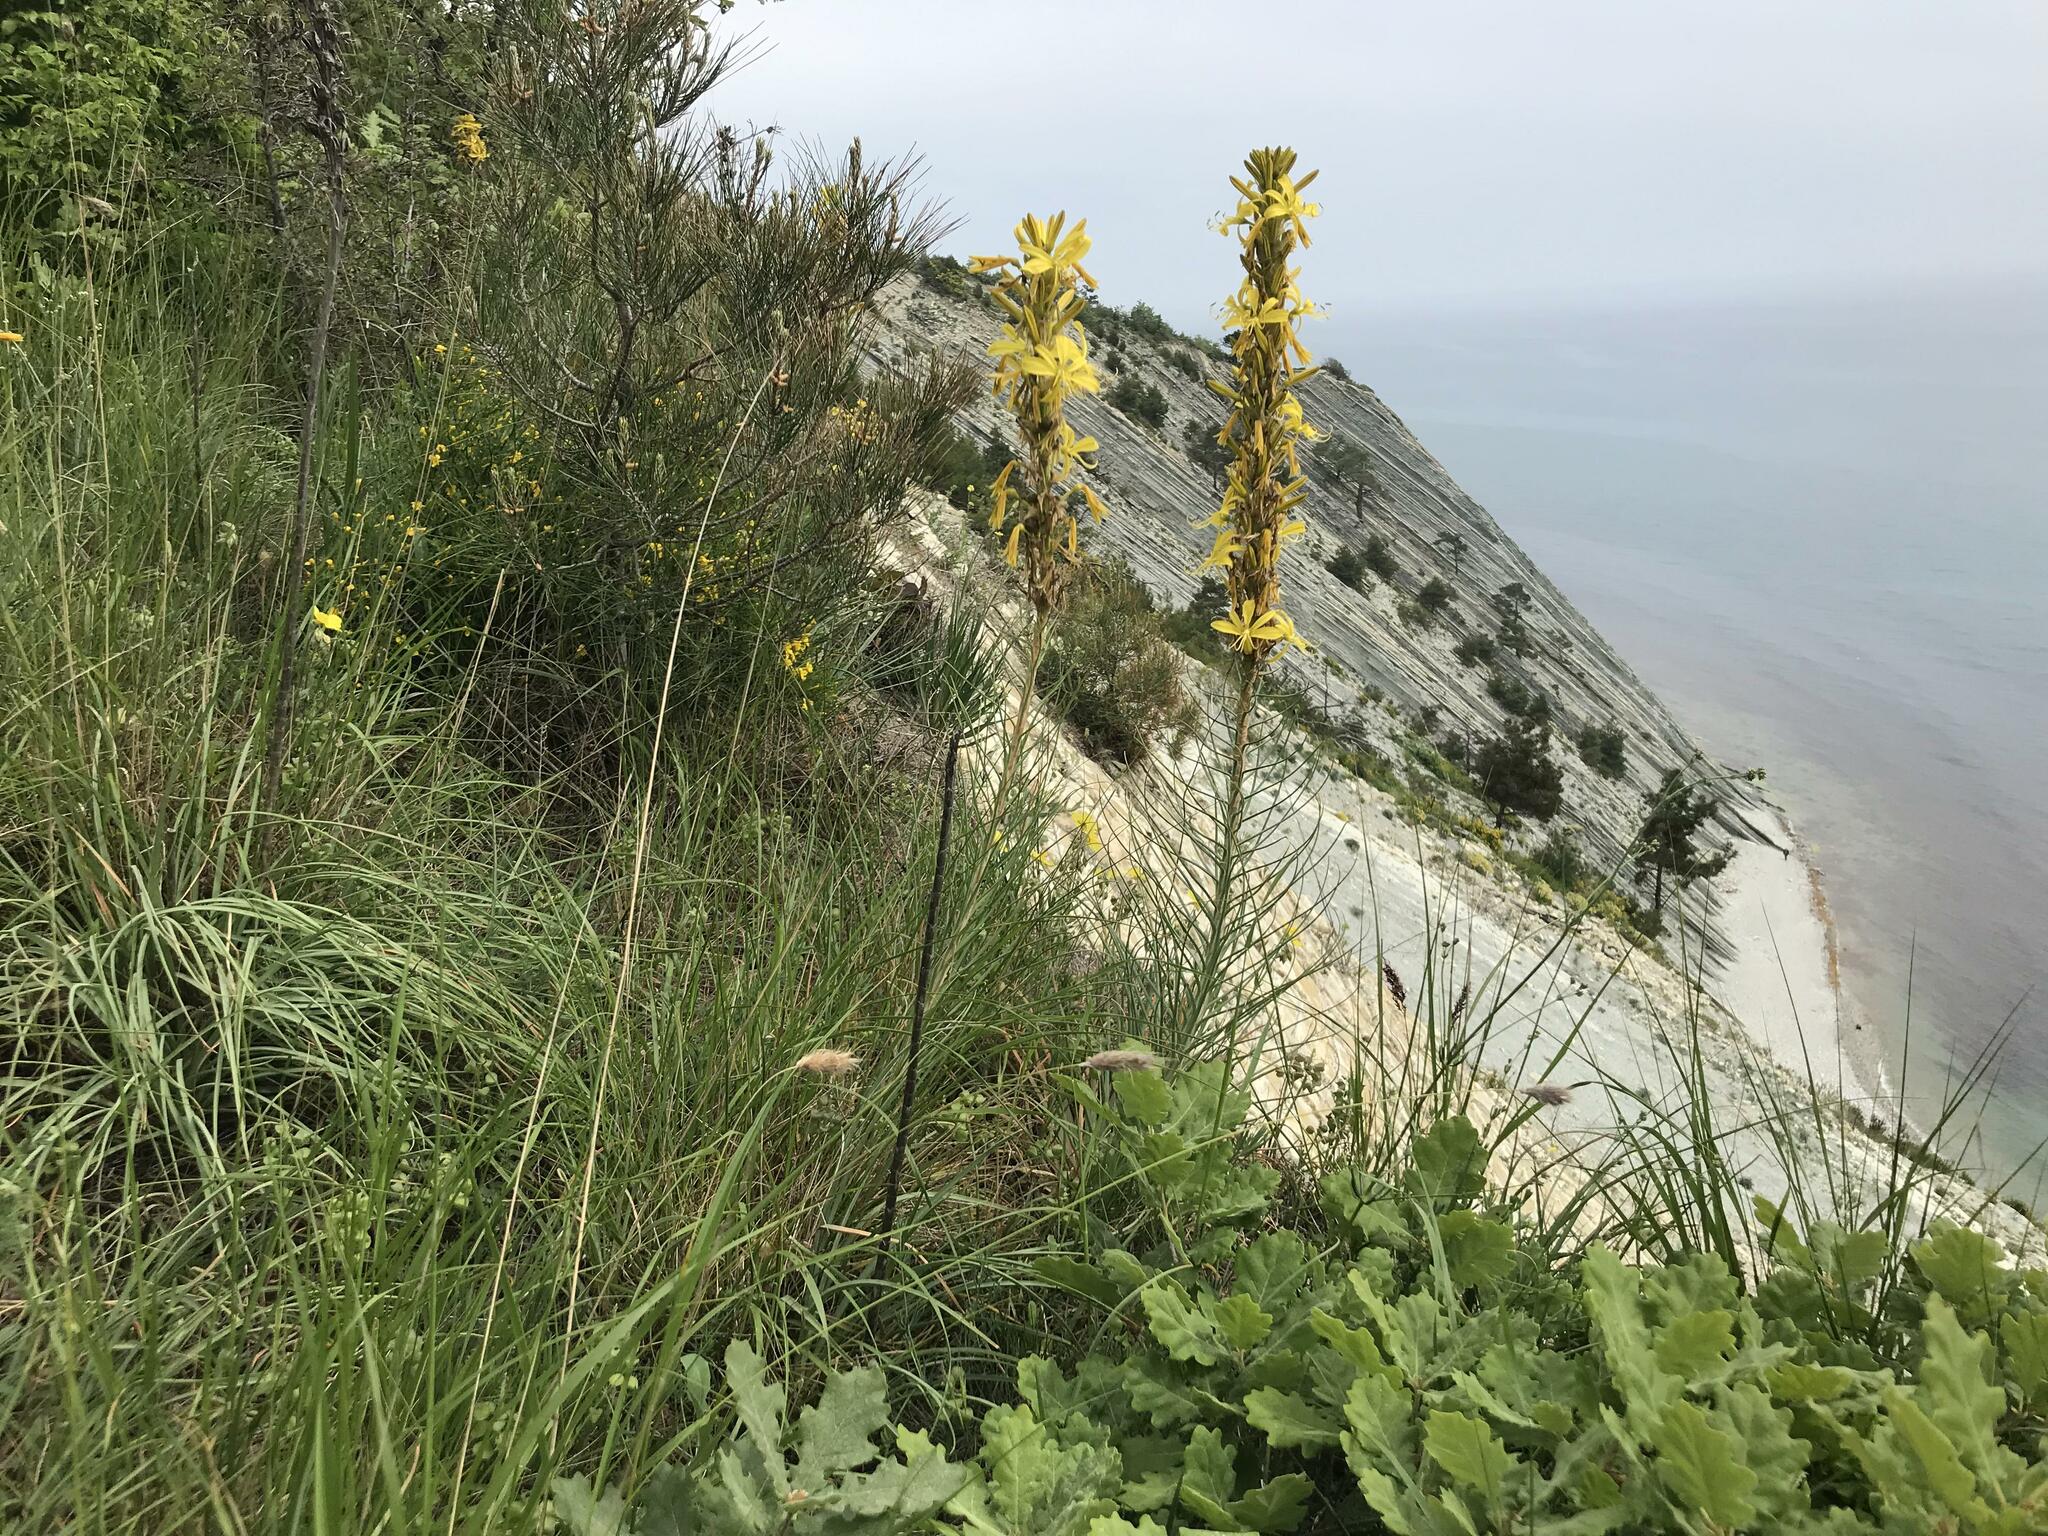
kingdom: Plantae
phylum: Tracheophyta
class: Liliopsida
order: Asparagales
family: Asphodelaceae
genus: Asphodeline
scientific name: Asphodeline lutea
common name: Yellow asphodel
